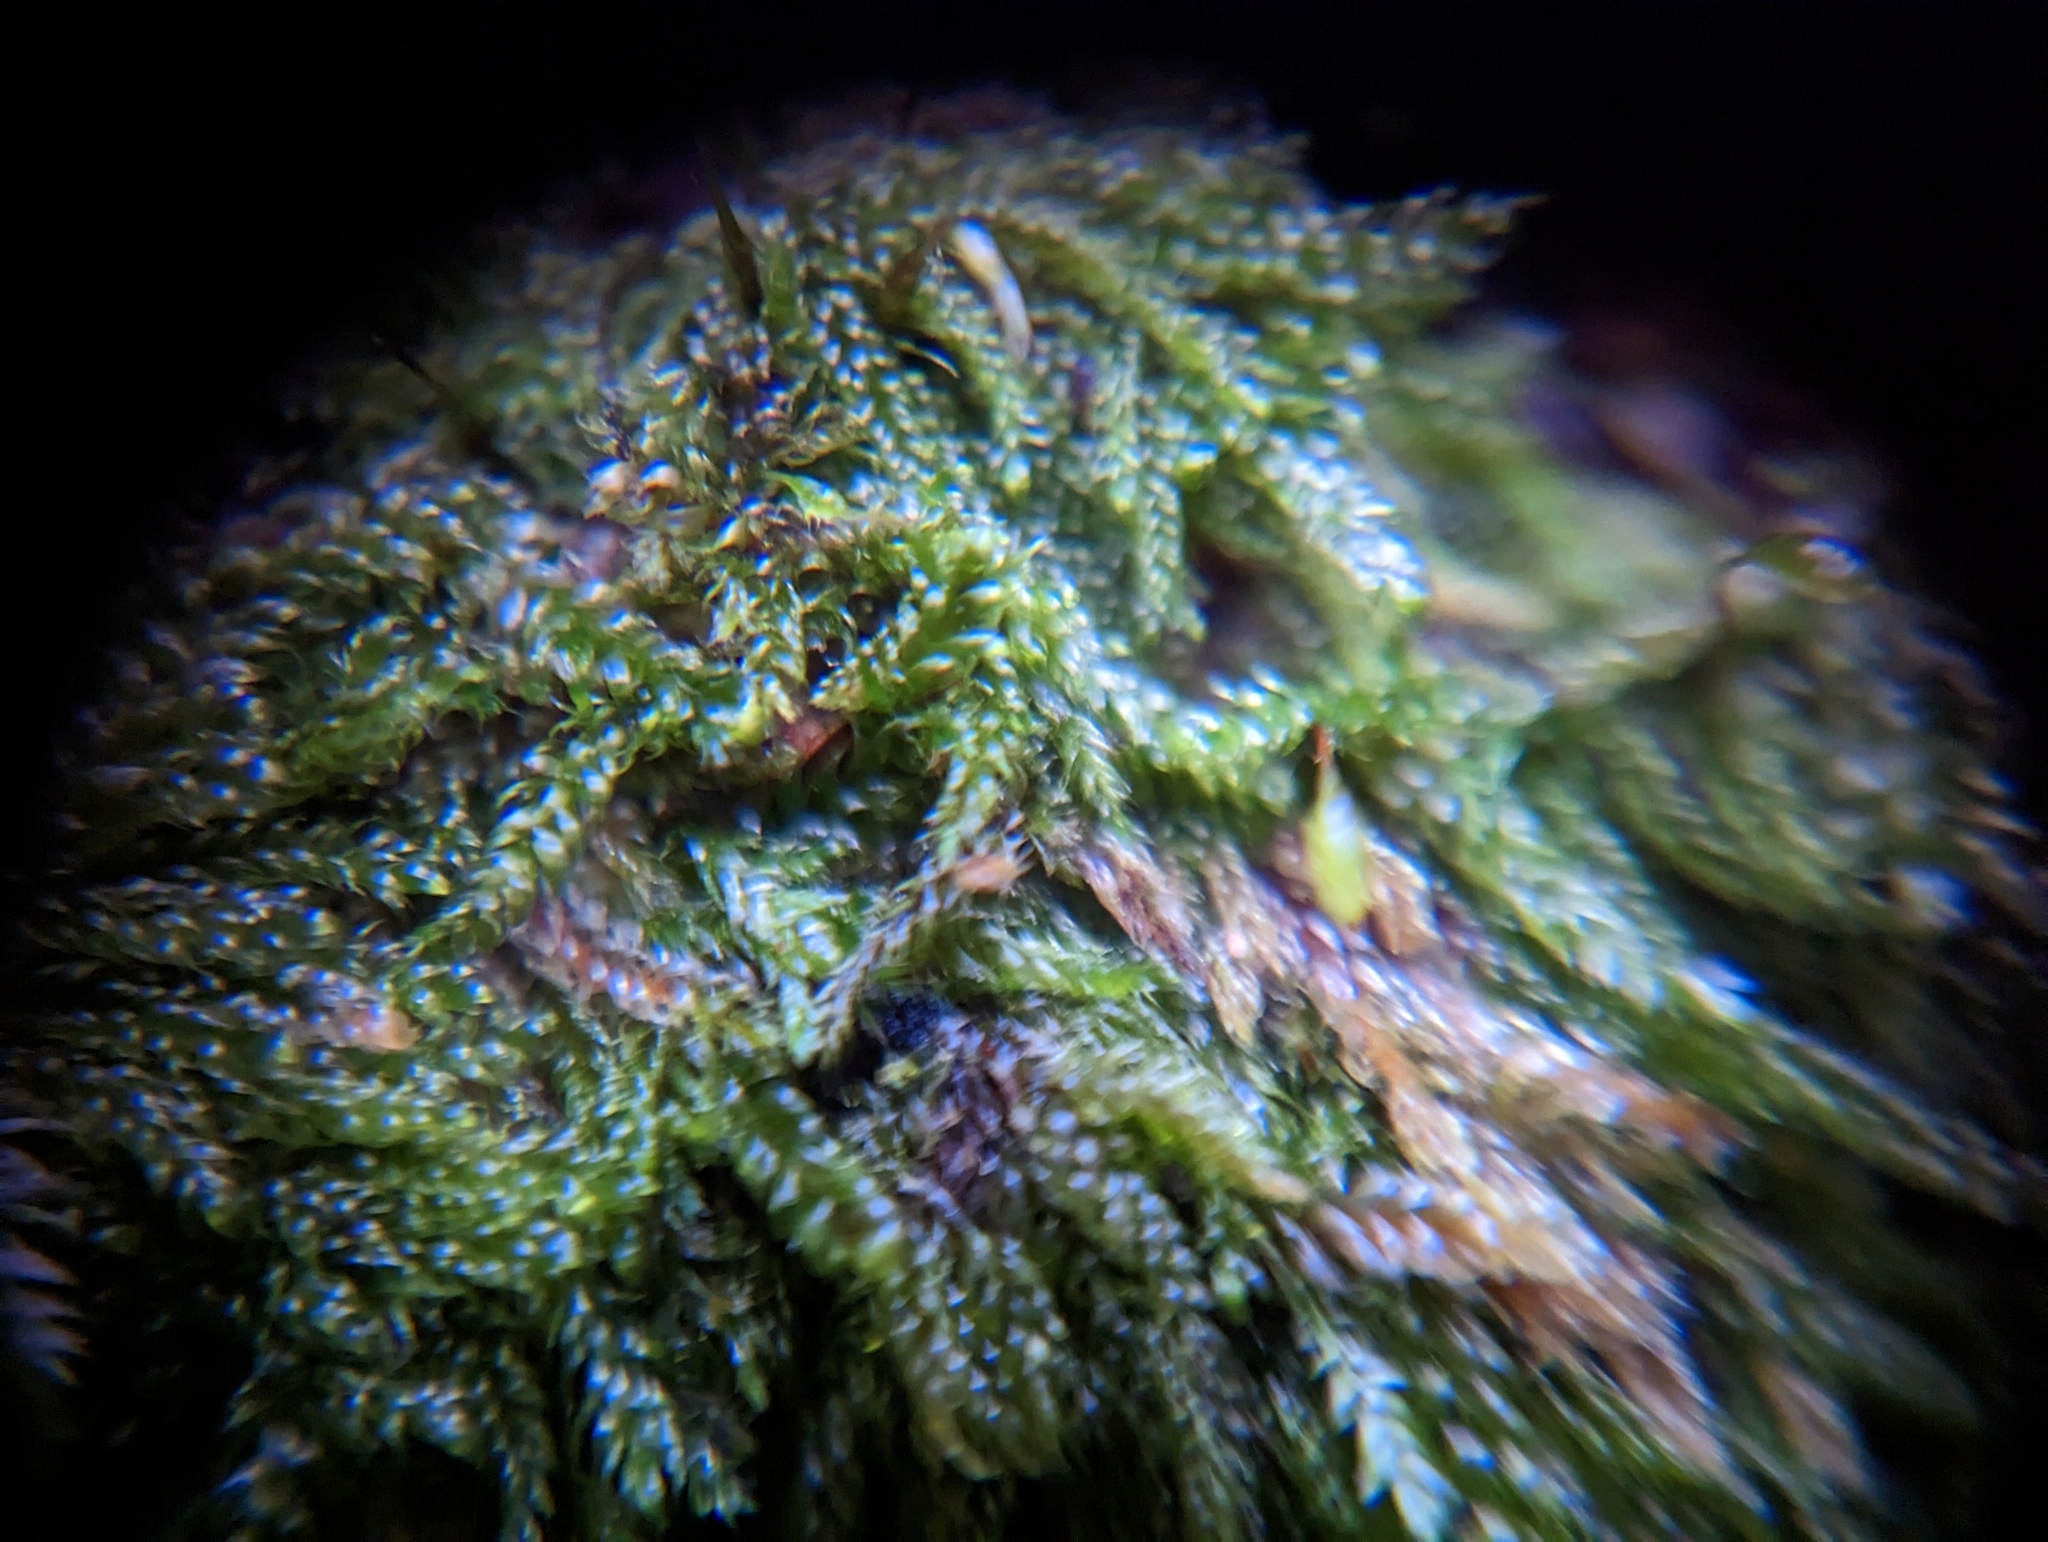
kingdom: Plantae
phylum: Bryophyta
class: Bryopsida
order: Hypnales
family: Pylaisiadelphaceae
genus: Trochophyllohypnum
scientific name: Trochophyllohypnum circinale
